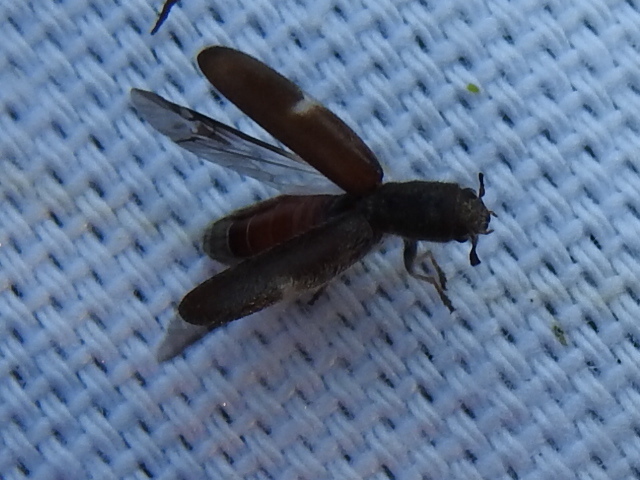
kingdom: Animalia
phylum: Arthropoda
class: Insecta
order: Coleoptera
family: Cleridae
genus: Monophylla
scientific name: Monophylla pallipes
